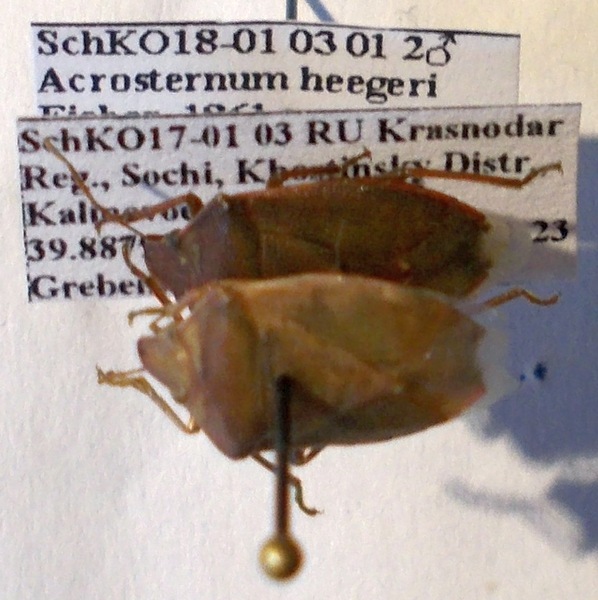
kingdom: Animalia
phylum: Arthropoda
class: Insecta
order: Hemiptera
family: Pentatomidae
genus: Acrosternum
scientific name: Acrosternum heegeri
